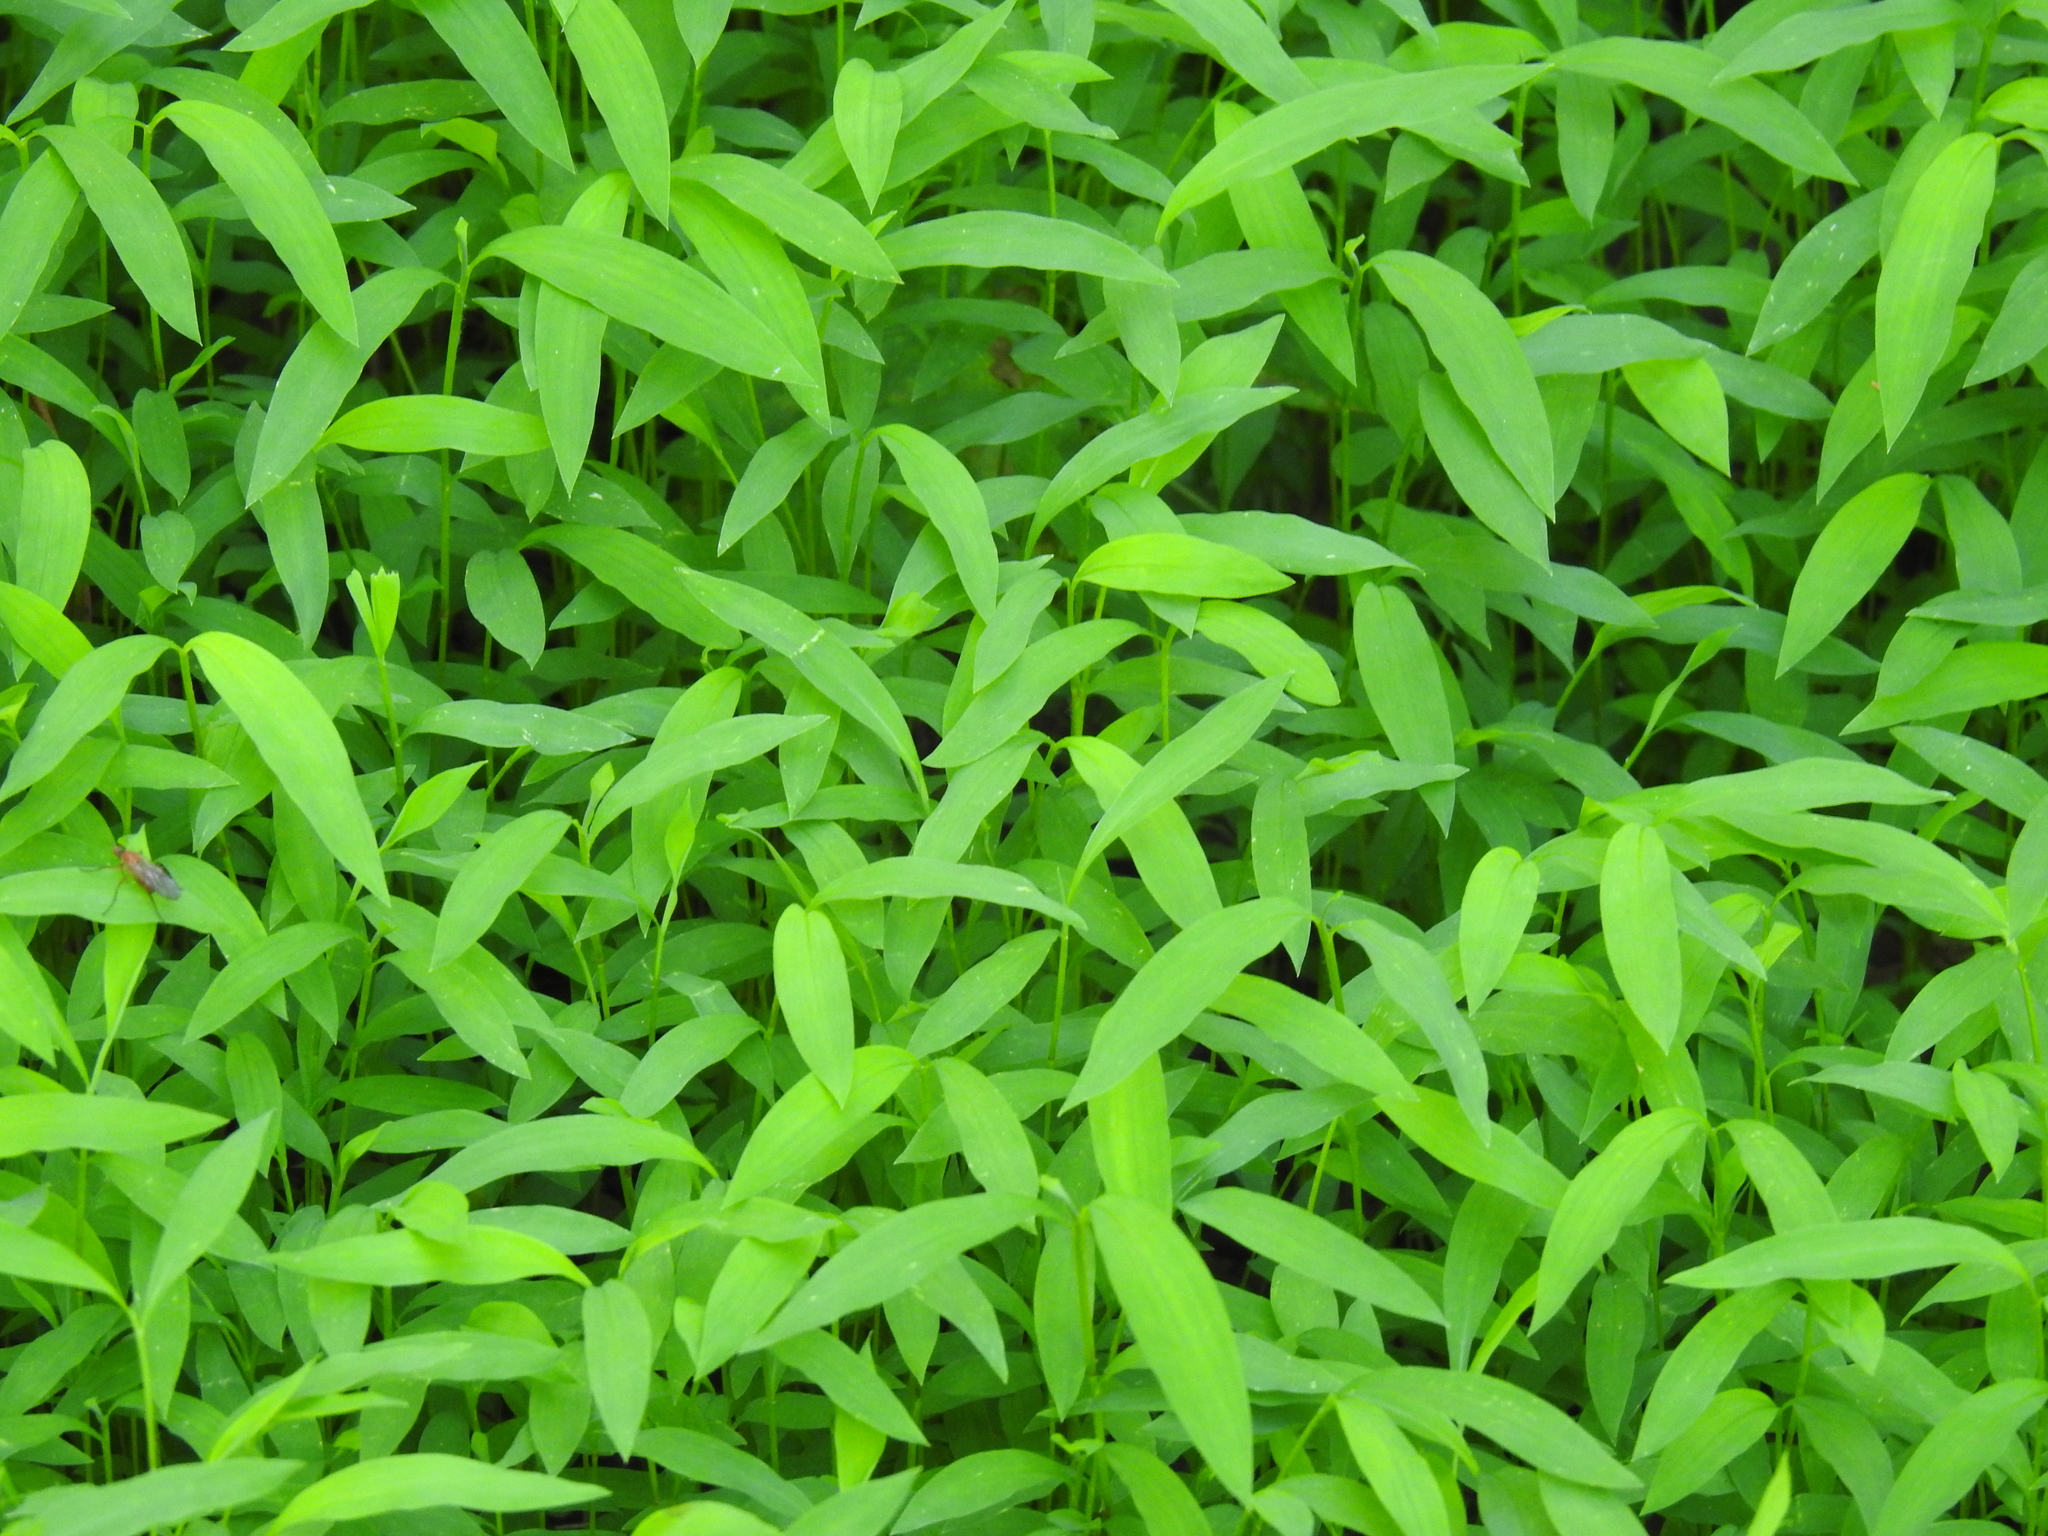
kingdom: Plantae
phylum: Tracheophyta
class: Liliopsida
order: Poales
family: Poaceae
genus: Microstegium
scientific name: Microstegium vimineum
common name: Japanese stiltgrass
